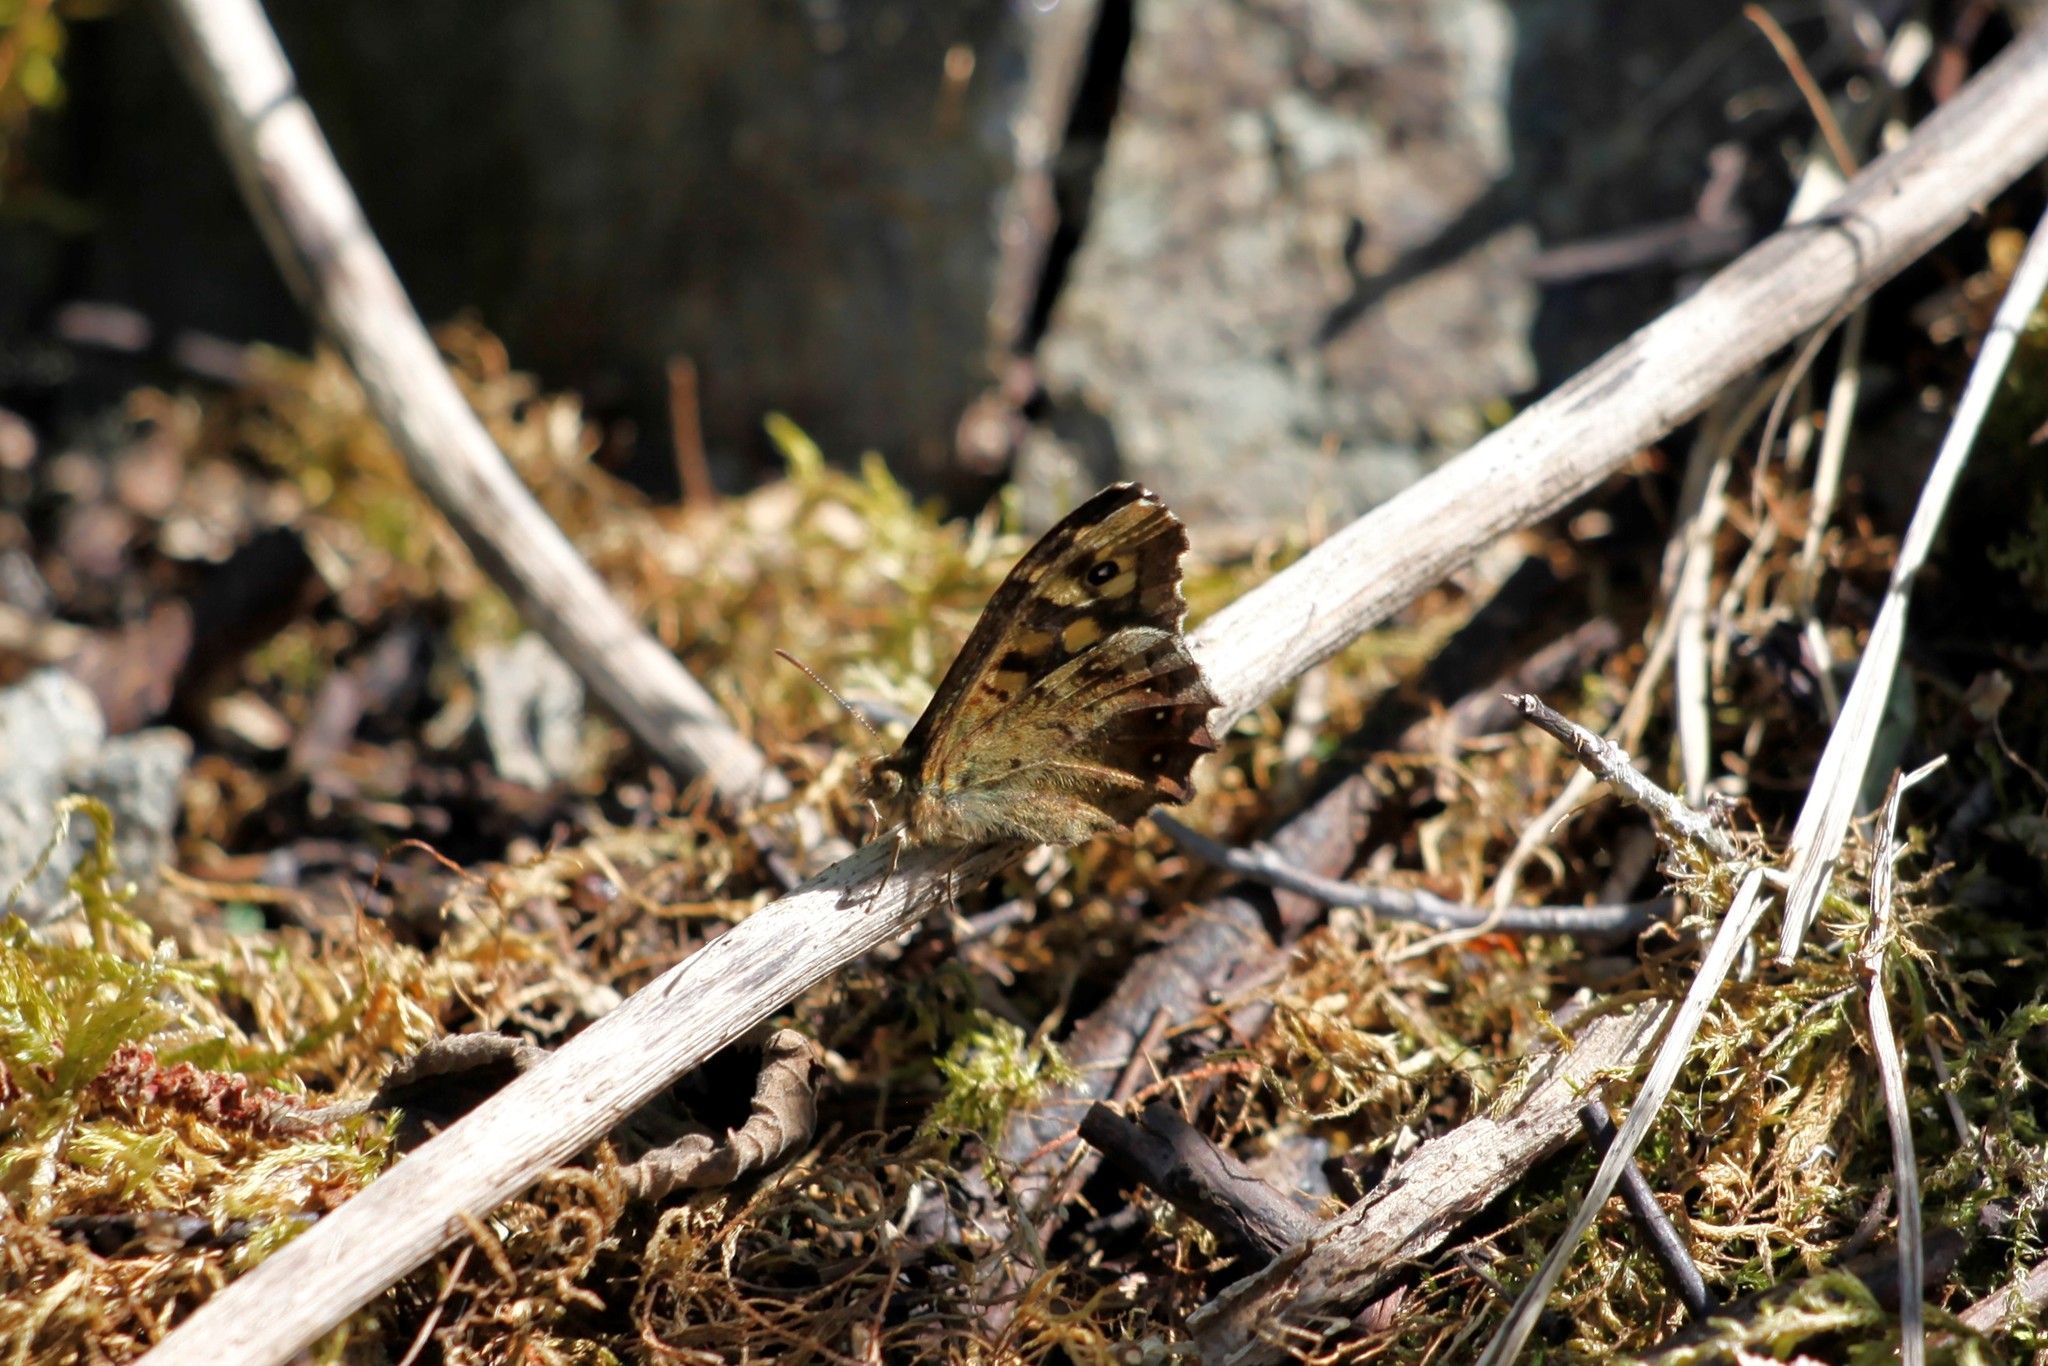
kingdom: Animalia
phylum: Arthropoda
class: Insecta
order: Lepidoptera
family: Nymphalidae
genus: Pararge
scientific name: Pararge aegeria
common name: Speckled wood
